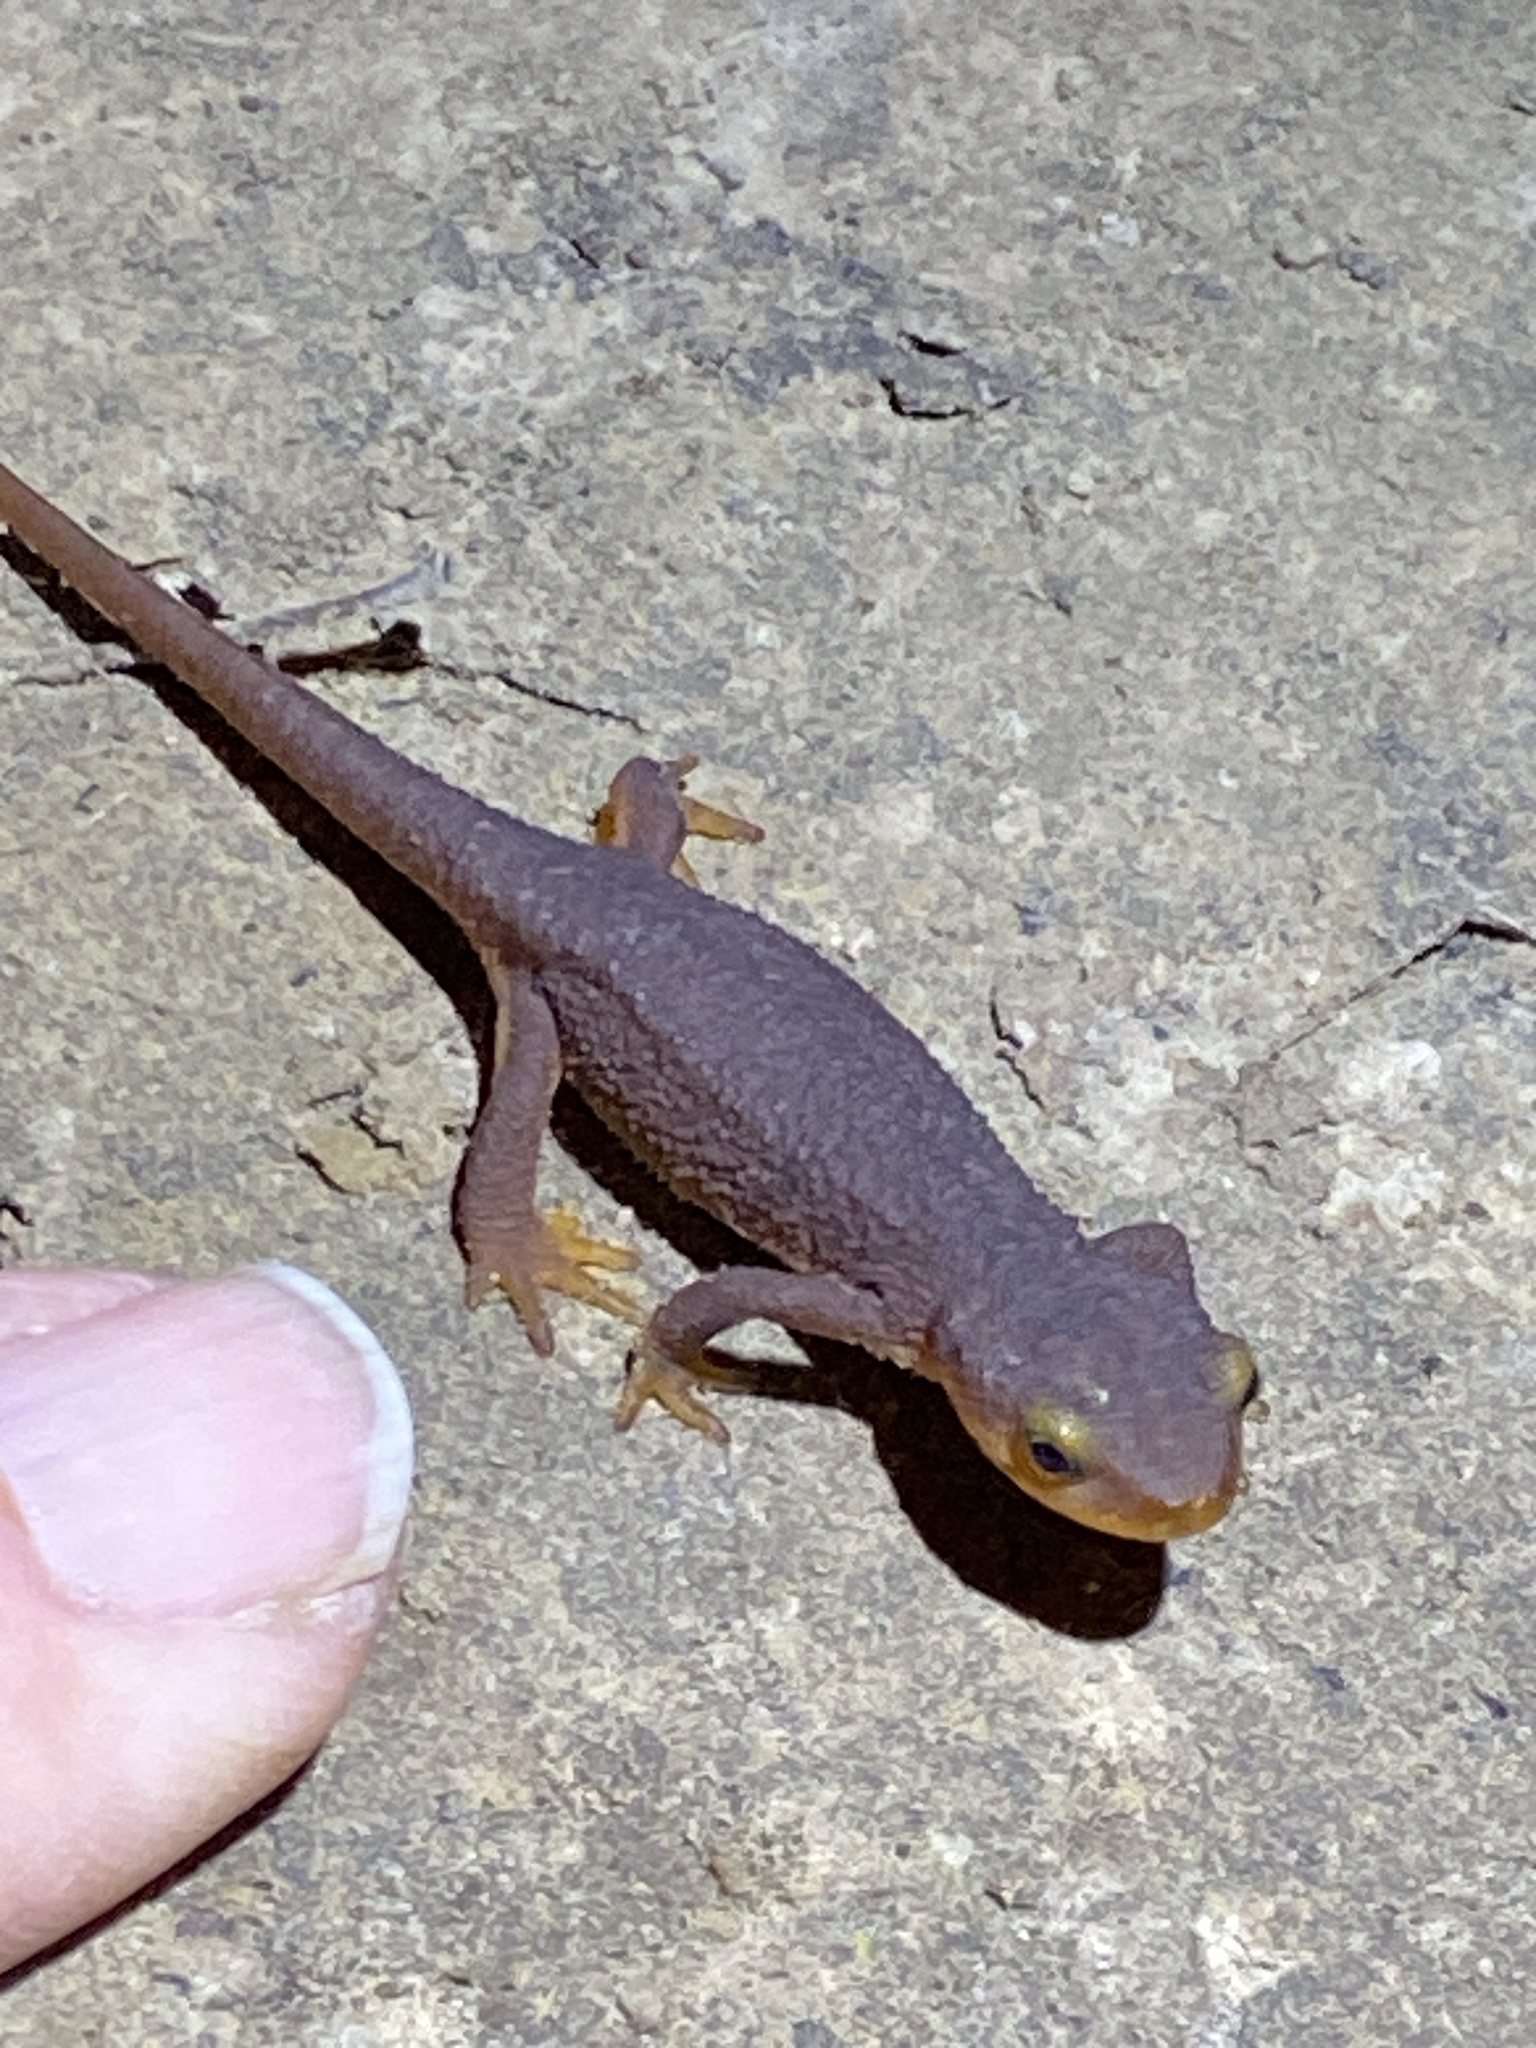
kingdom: Animalia
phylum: Chordata
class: Amphibia
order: Caudata
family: Salamandridae
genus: Taricha
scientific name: Taricha torosa
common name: California newt
